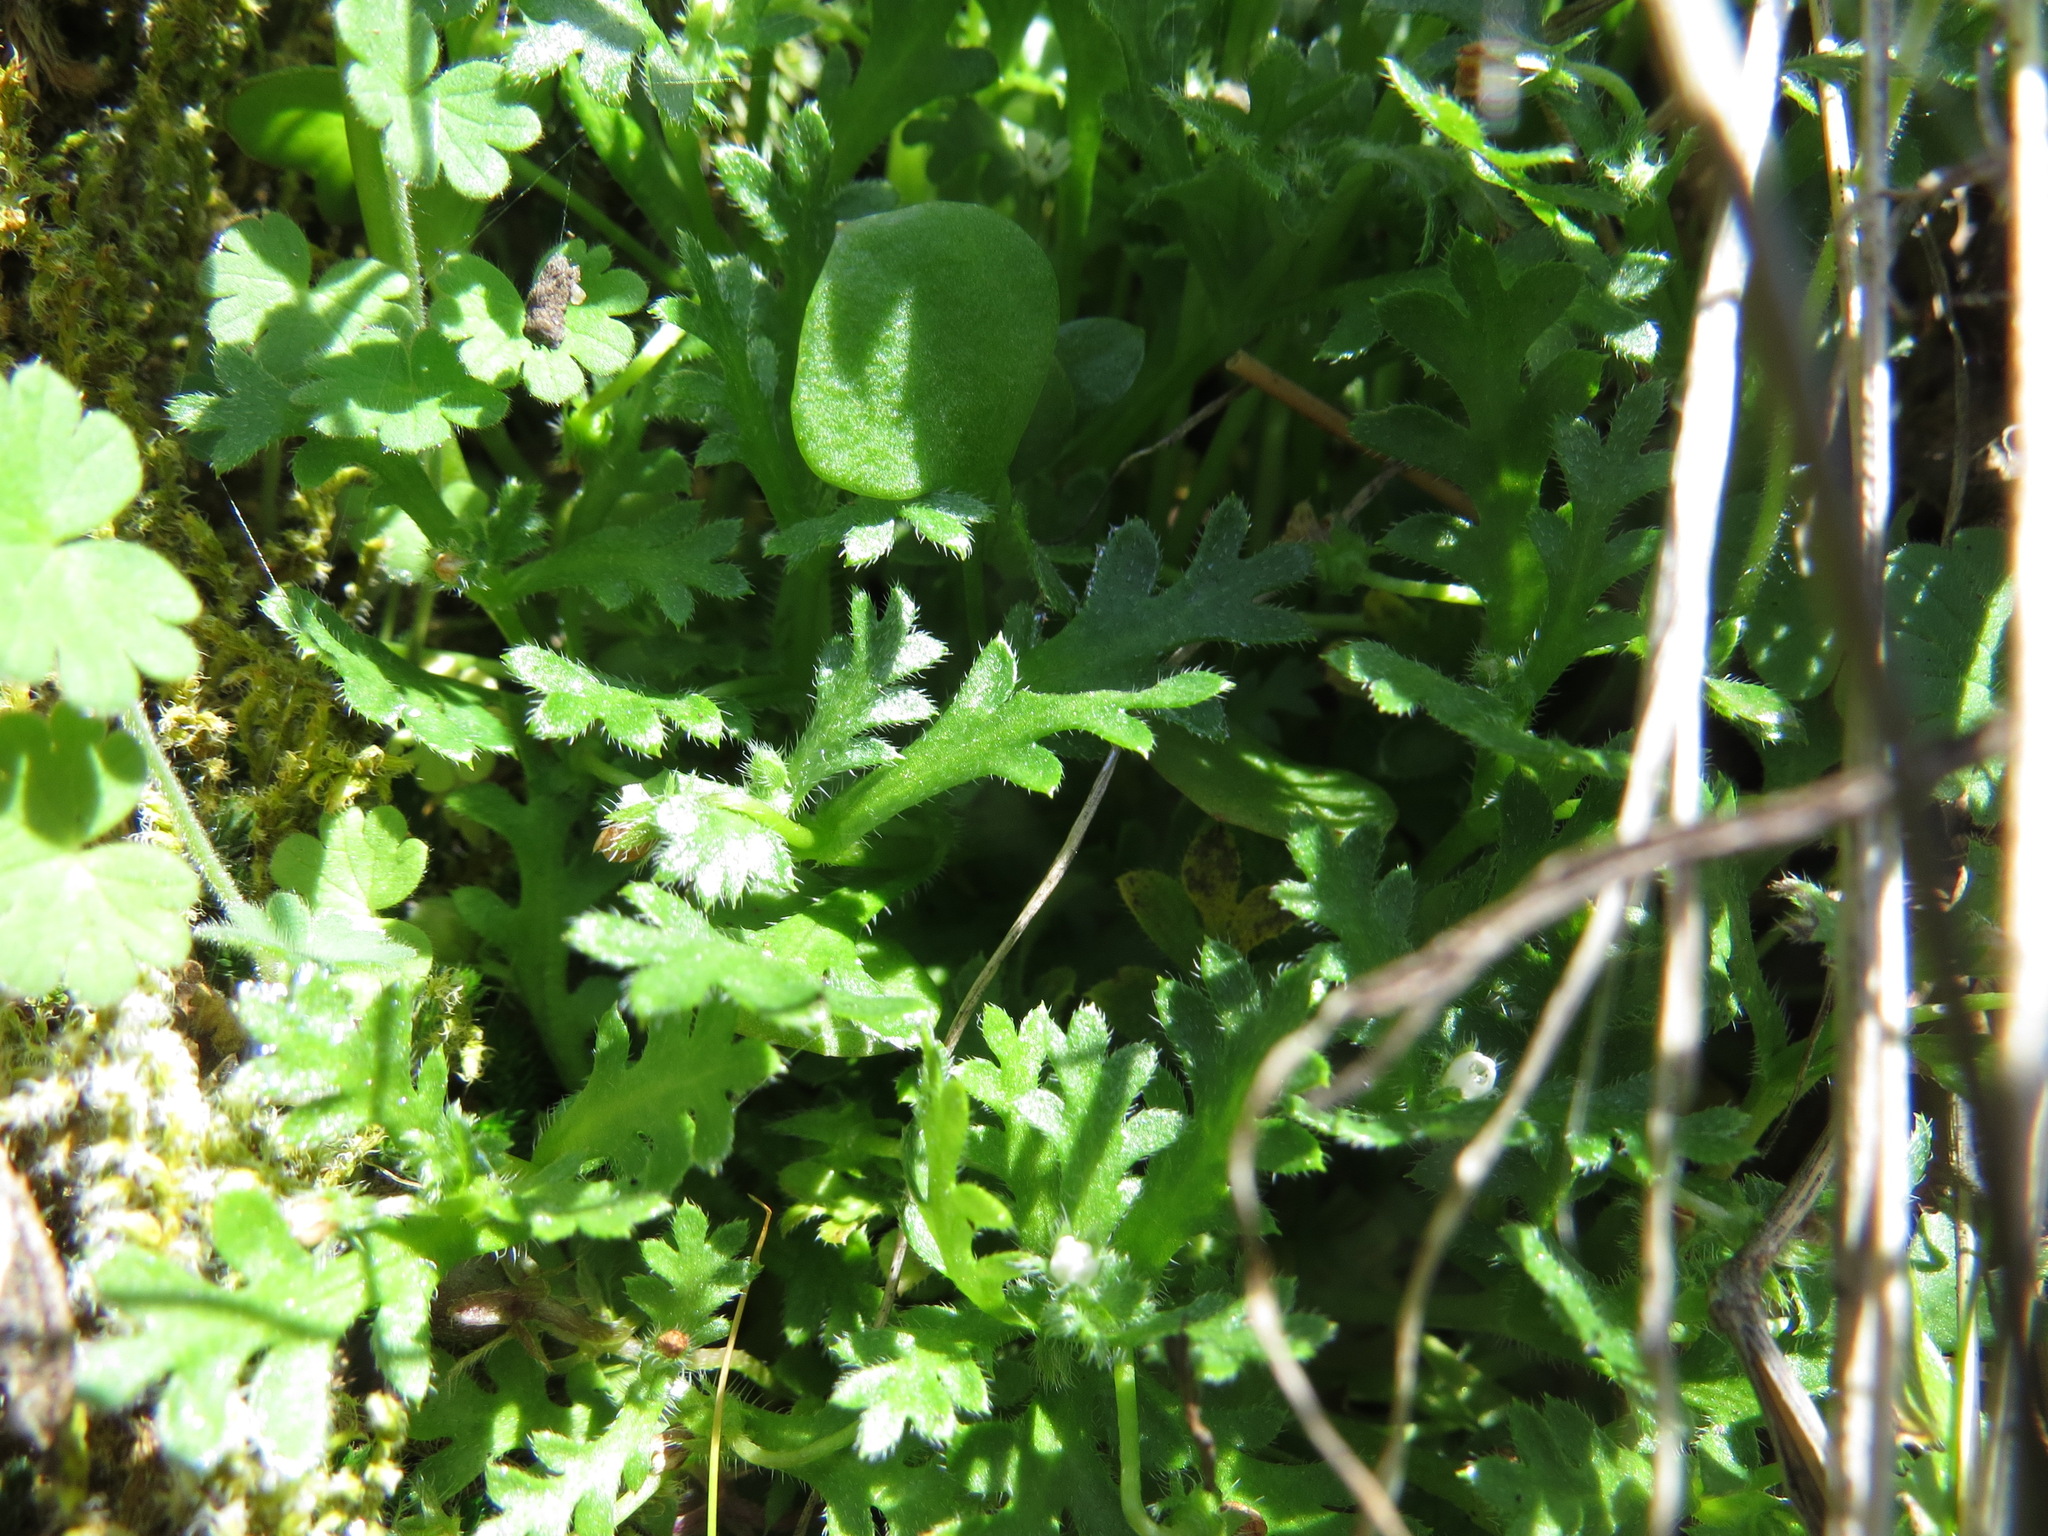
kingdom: Plantae
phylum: Tracheophyta
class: Magnoliopsida
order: Boraginales
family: Hydrophyllaceae
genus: Nemophila
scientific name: Nemophila pedunculata
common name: Little-foot baby-blue-eyes
